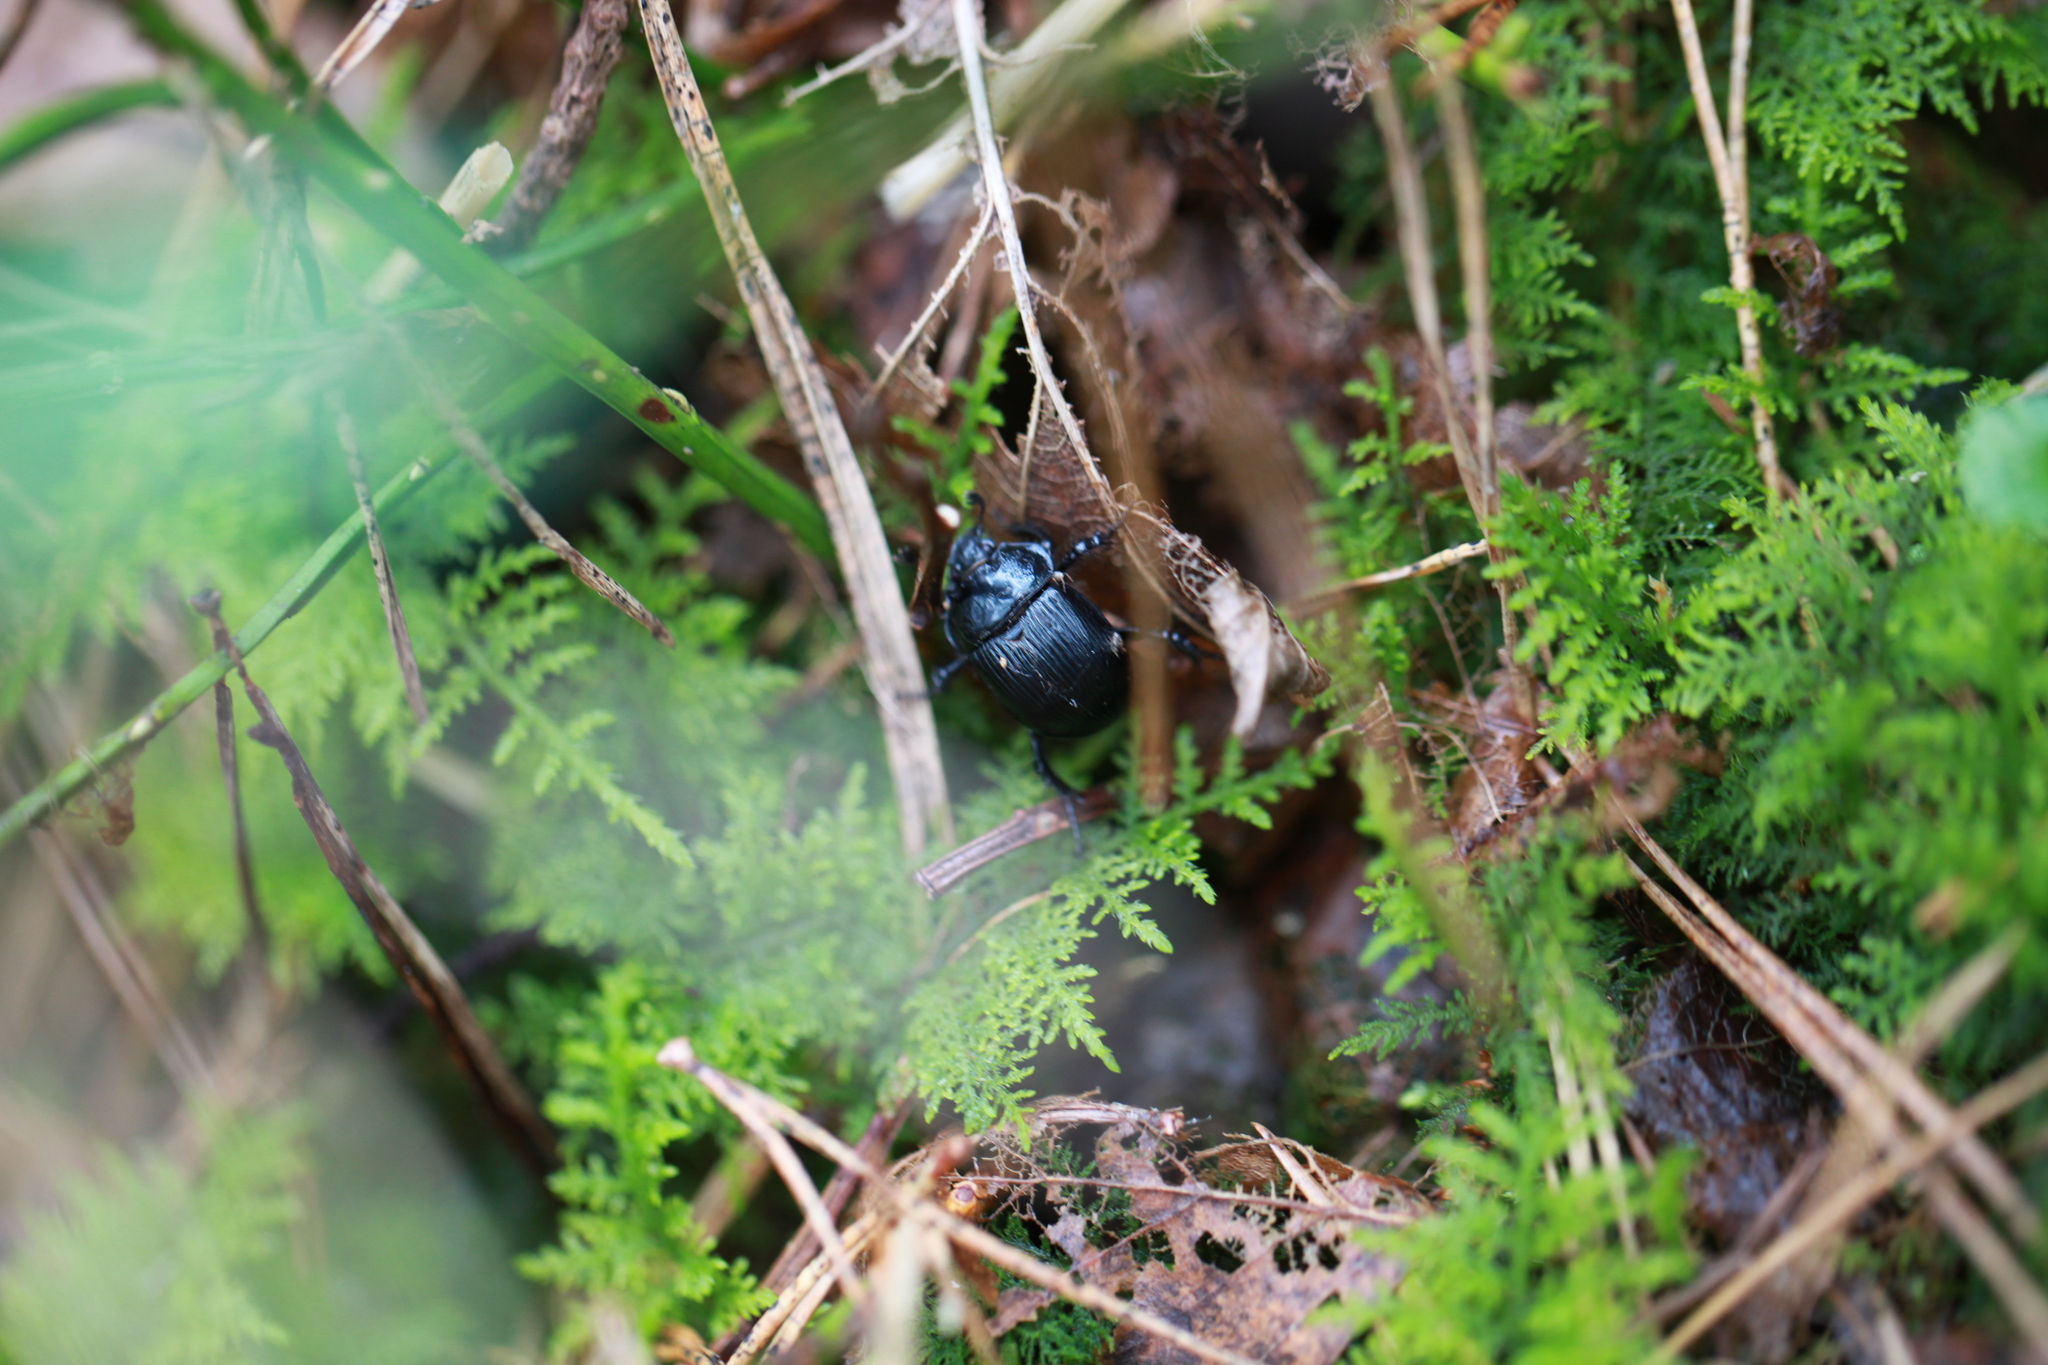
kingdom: Animalia
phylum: Arthropoda
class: Insecta
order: Coleoptera
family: Geotrupidae
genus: Typhaeus
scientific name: Typhaeus typhoeus
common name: Minotaur beetle
